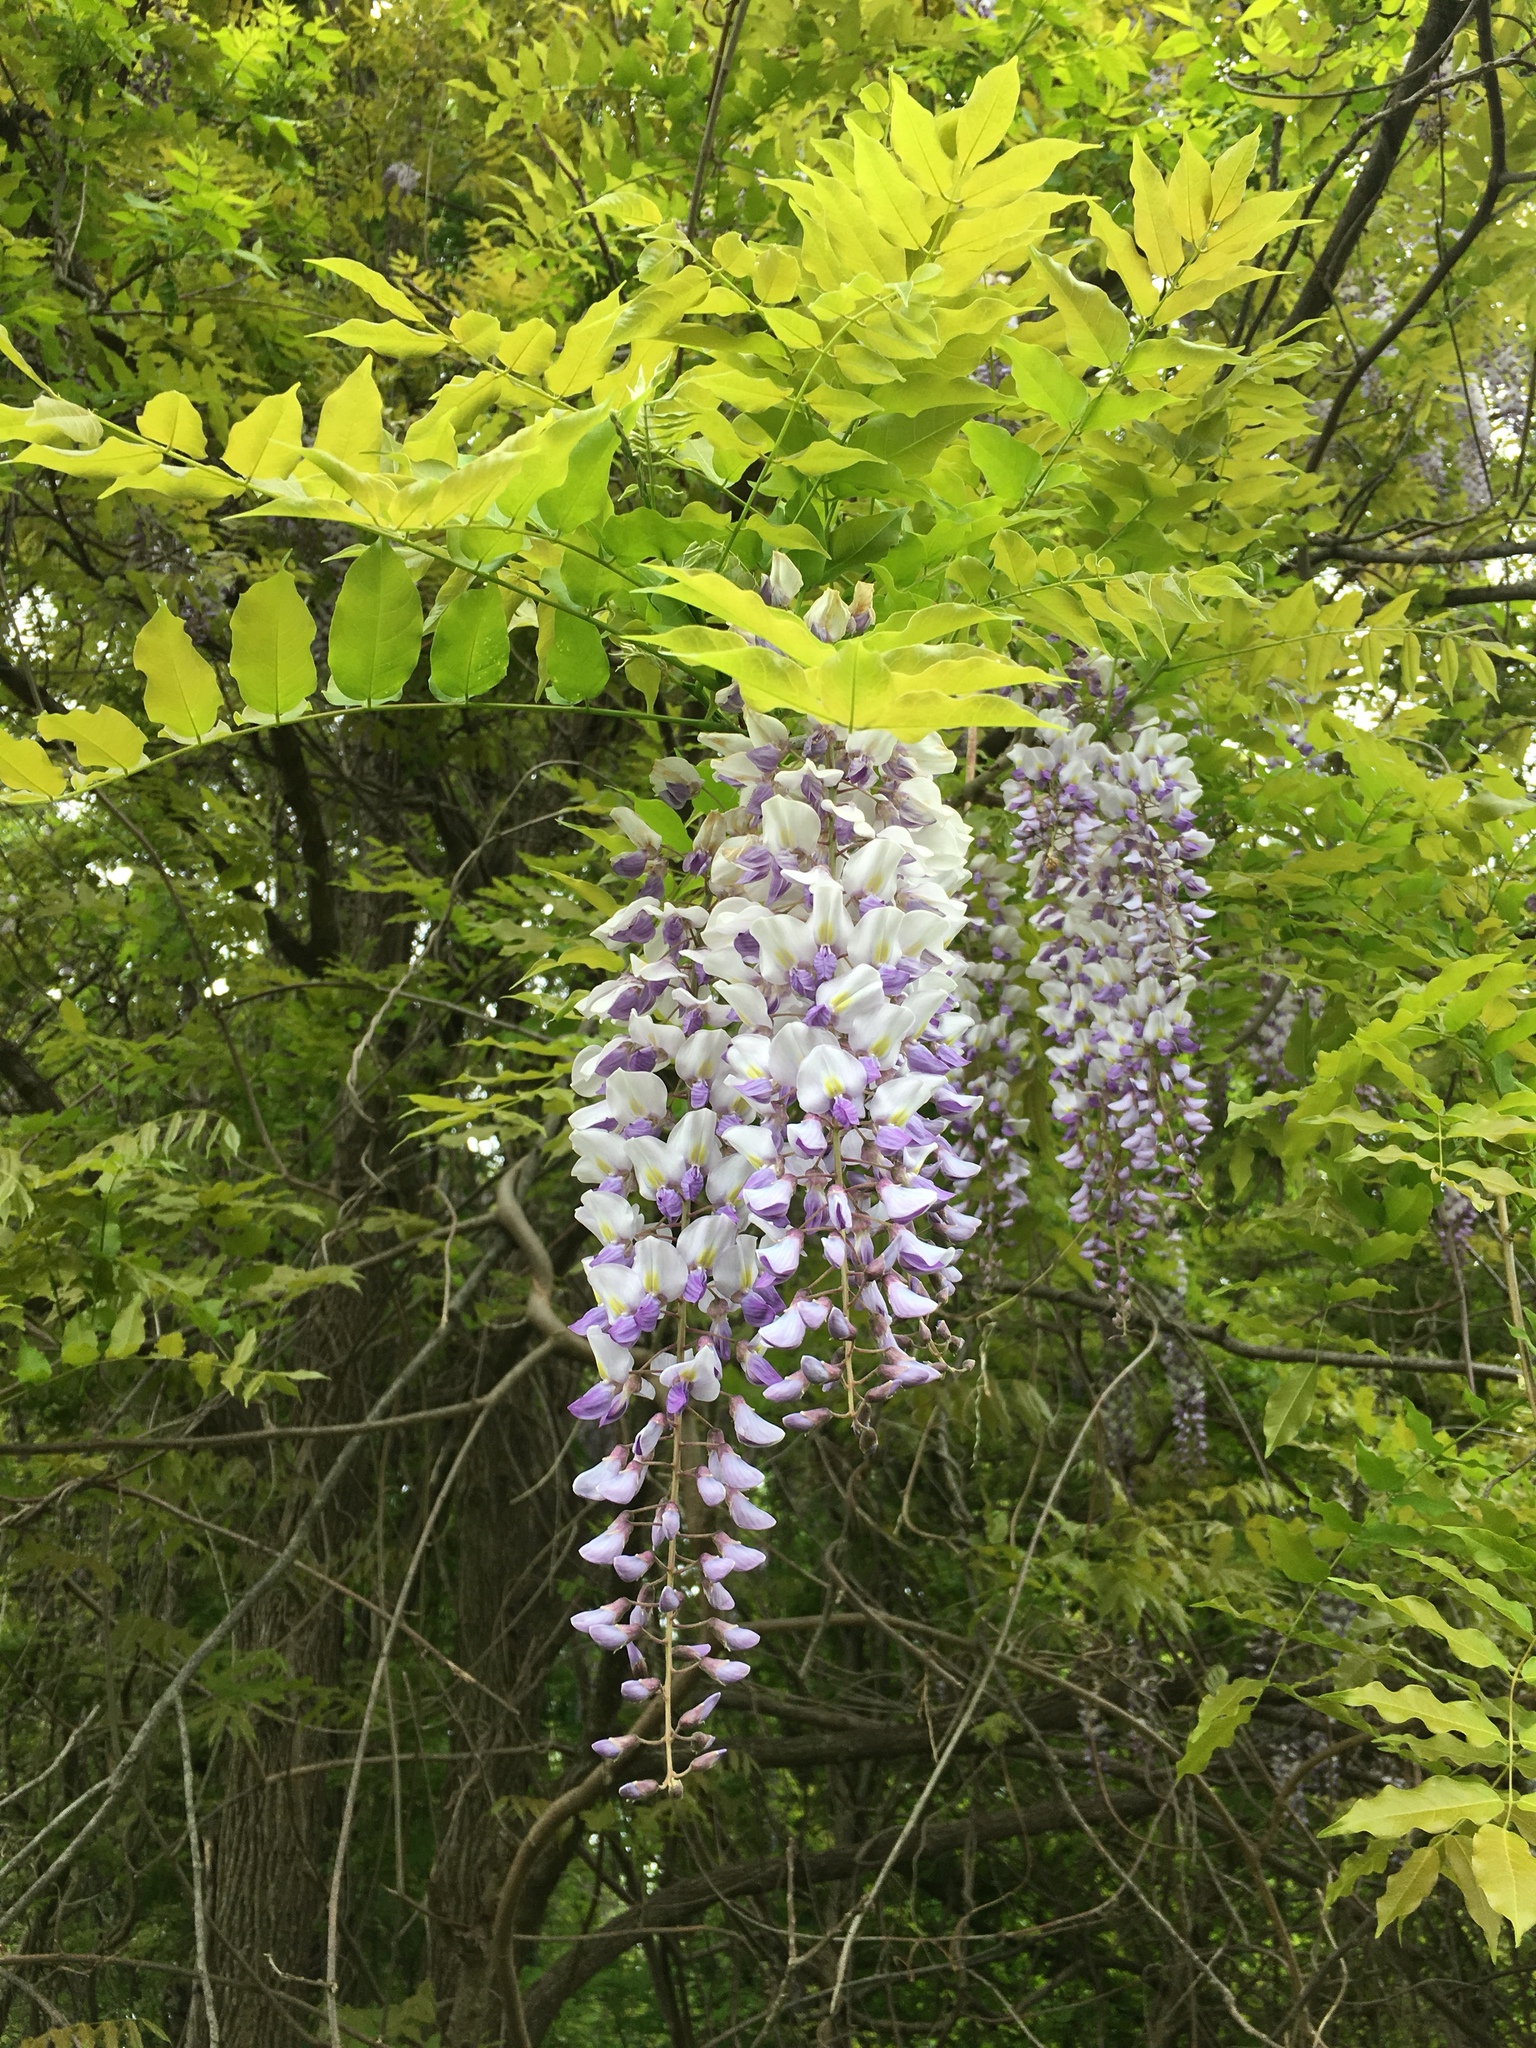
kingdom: Plantae
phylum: Tracheophyta
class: Magnoliopsida
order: Fabales
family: Fabaceae
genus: Wisteria
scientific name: Wisteria floribunda
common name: Japanese wisteria
